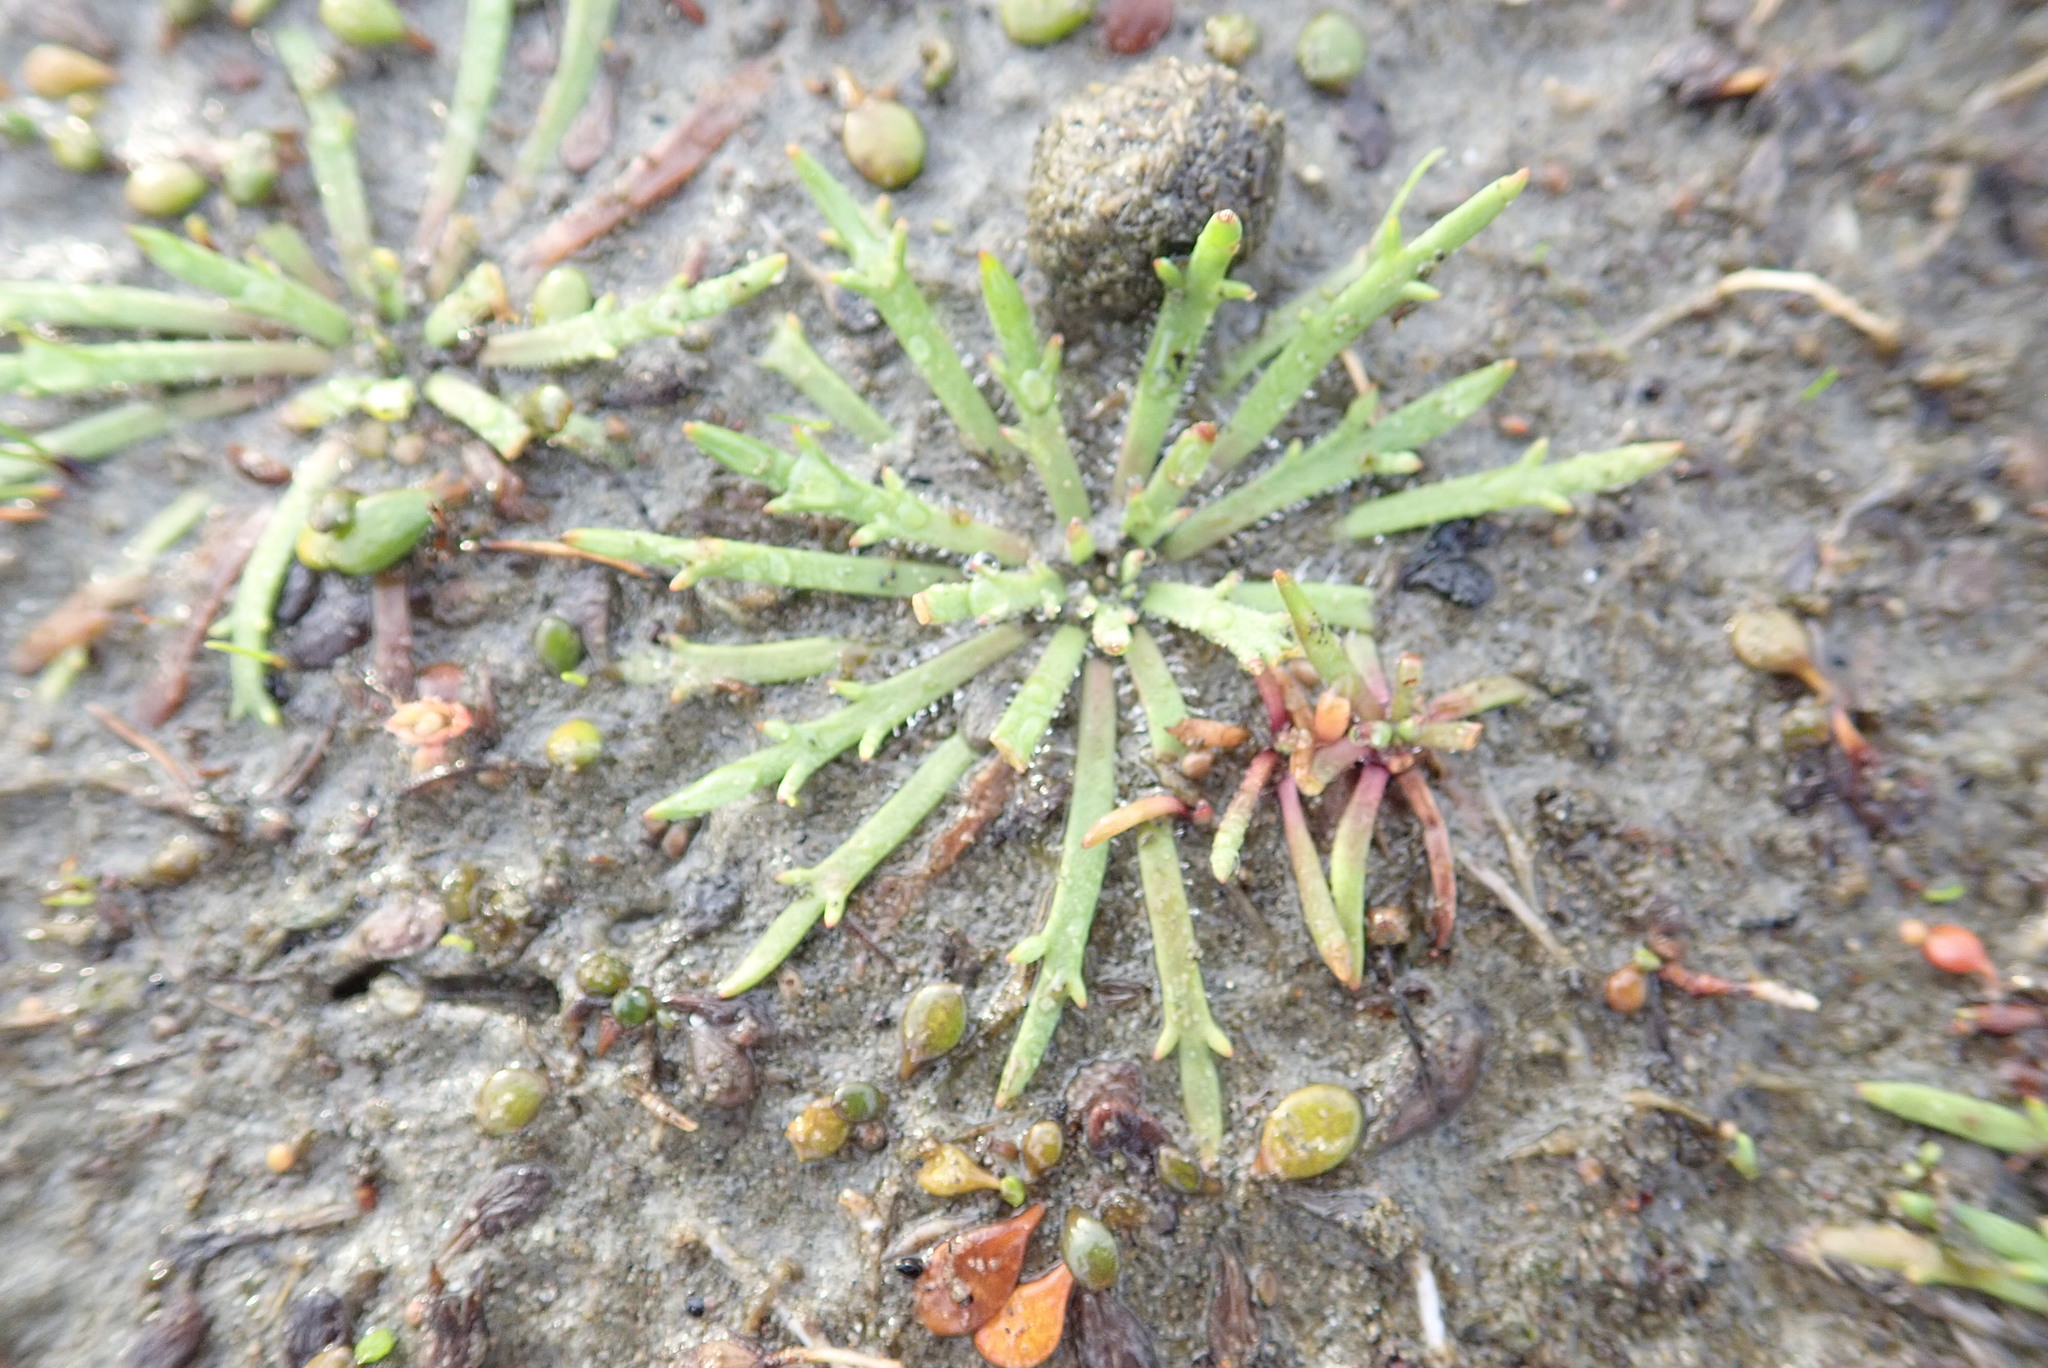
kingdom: Plantae
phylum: Tracheophyta
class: Magnoliopsida
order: Lamiales
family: Plantaginaceae
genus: Plantago
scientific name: Plantago coronopus
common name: Buck's-horn plantain
